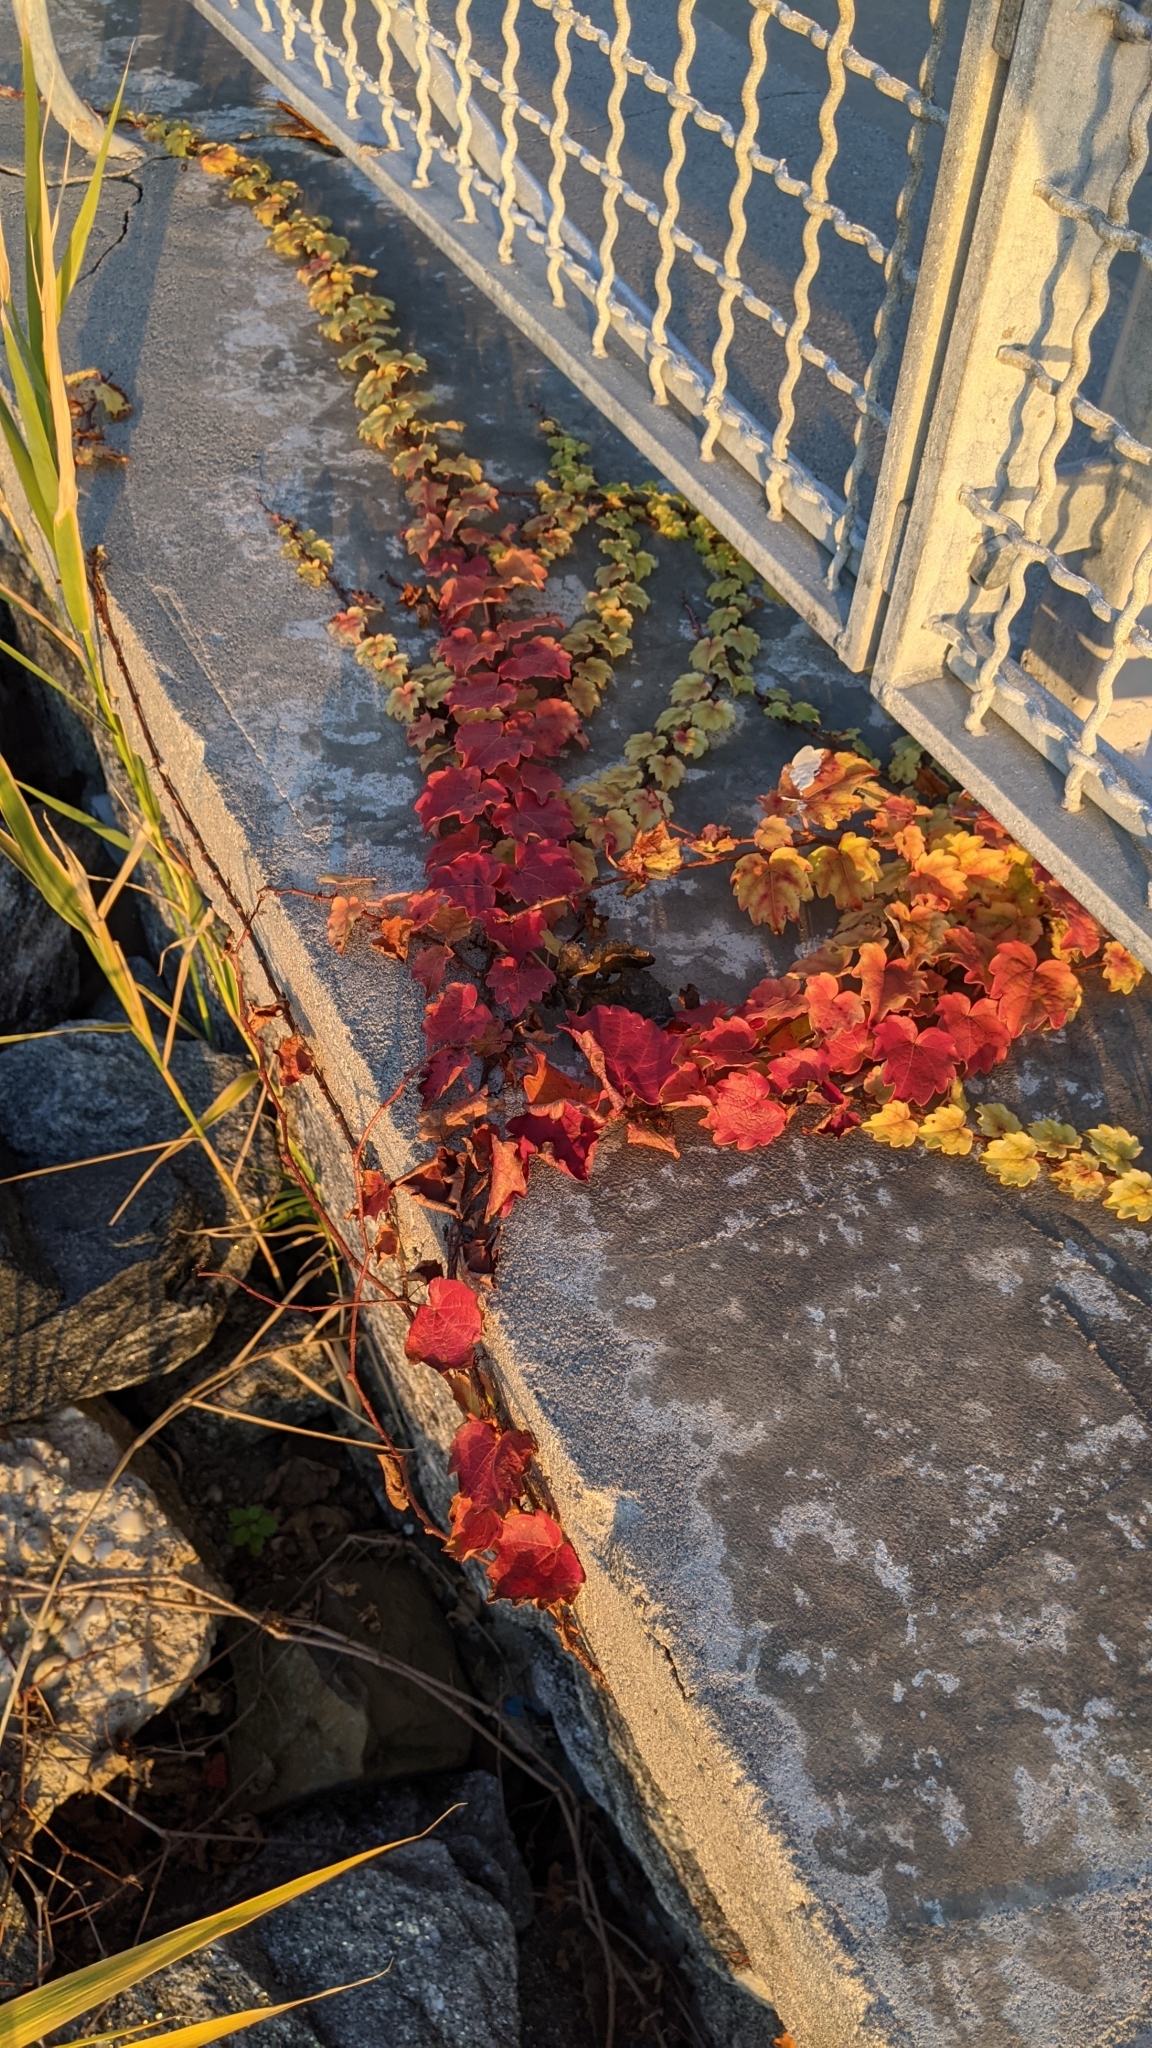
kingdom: Plantae
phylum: Tracheophyta
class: Magnoliopsida
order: Vitales
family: Vitaceae
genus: Parthenocissus
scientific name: Parthenocissus tricuspidata
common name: Boston ivy
